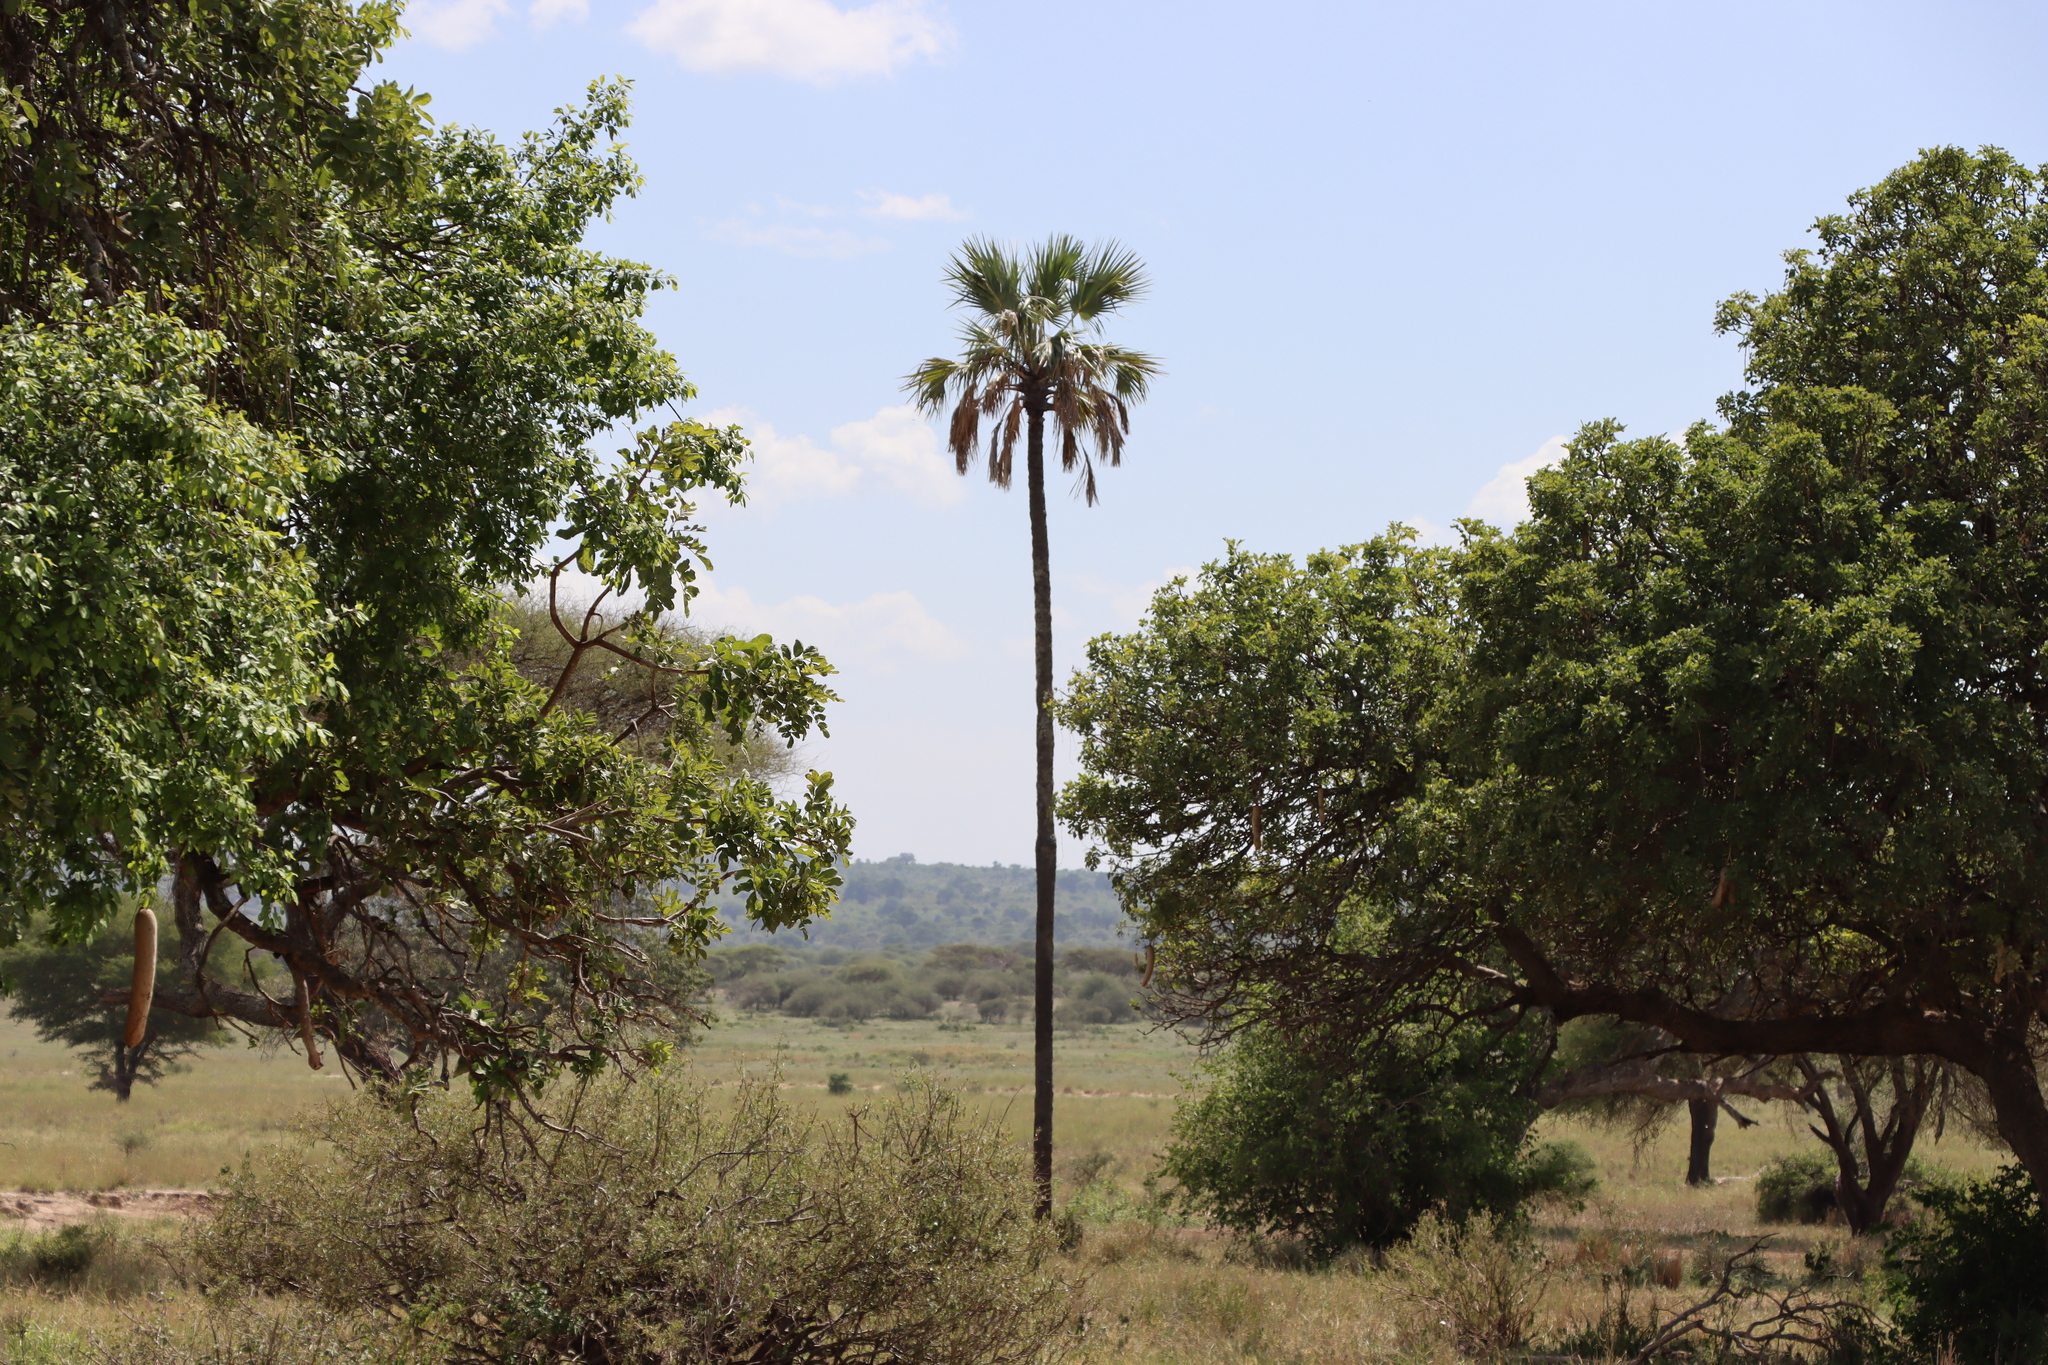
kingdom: Plantae
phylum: Tracheophyta
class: Liliopsida
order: Arecales
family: Arecaceae
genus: Hyphaene
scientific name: Hyphaene petersiana
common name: African ivory nut palm
